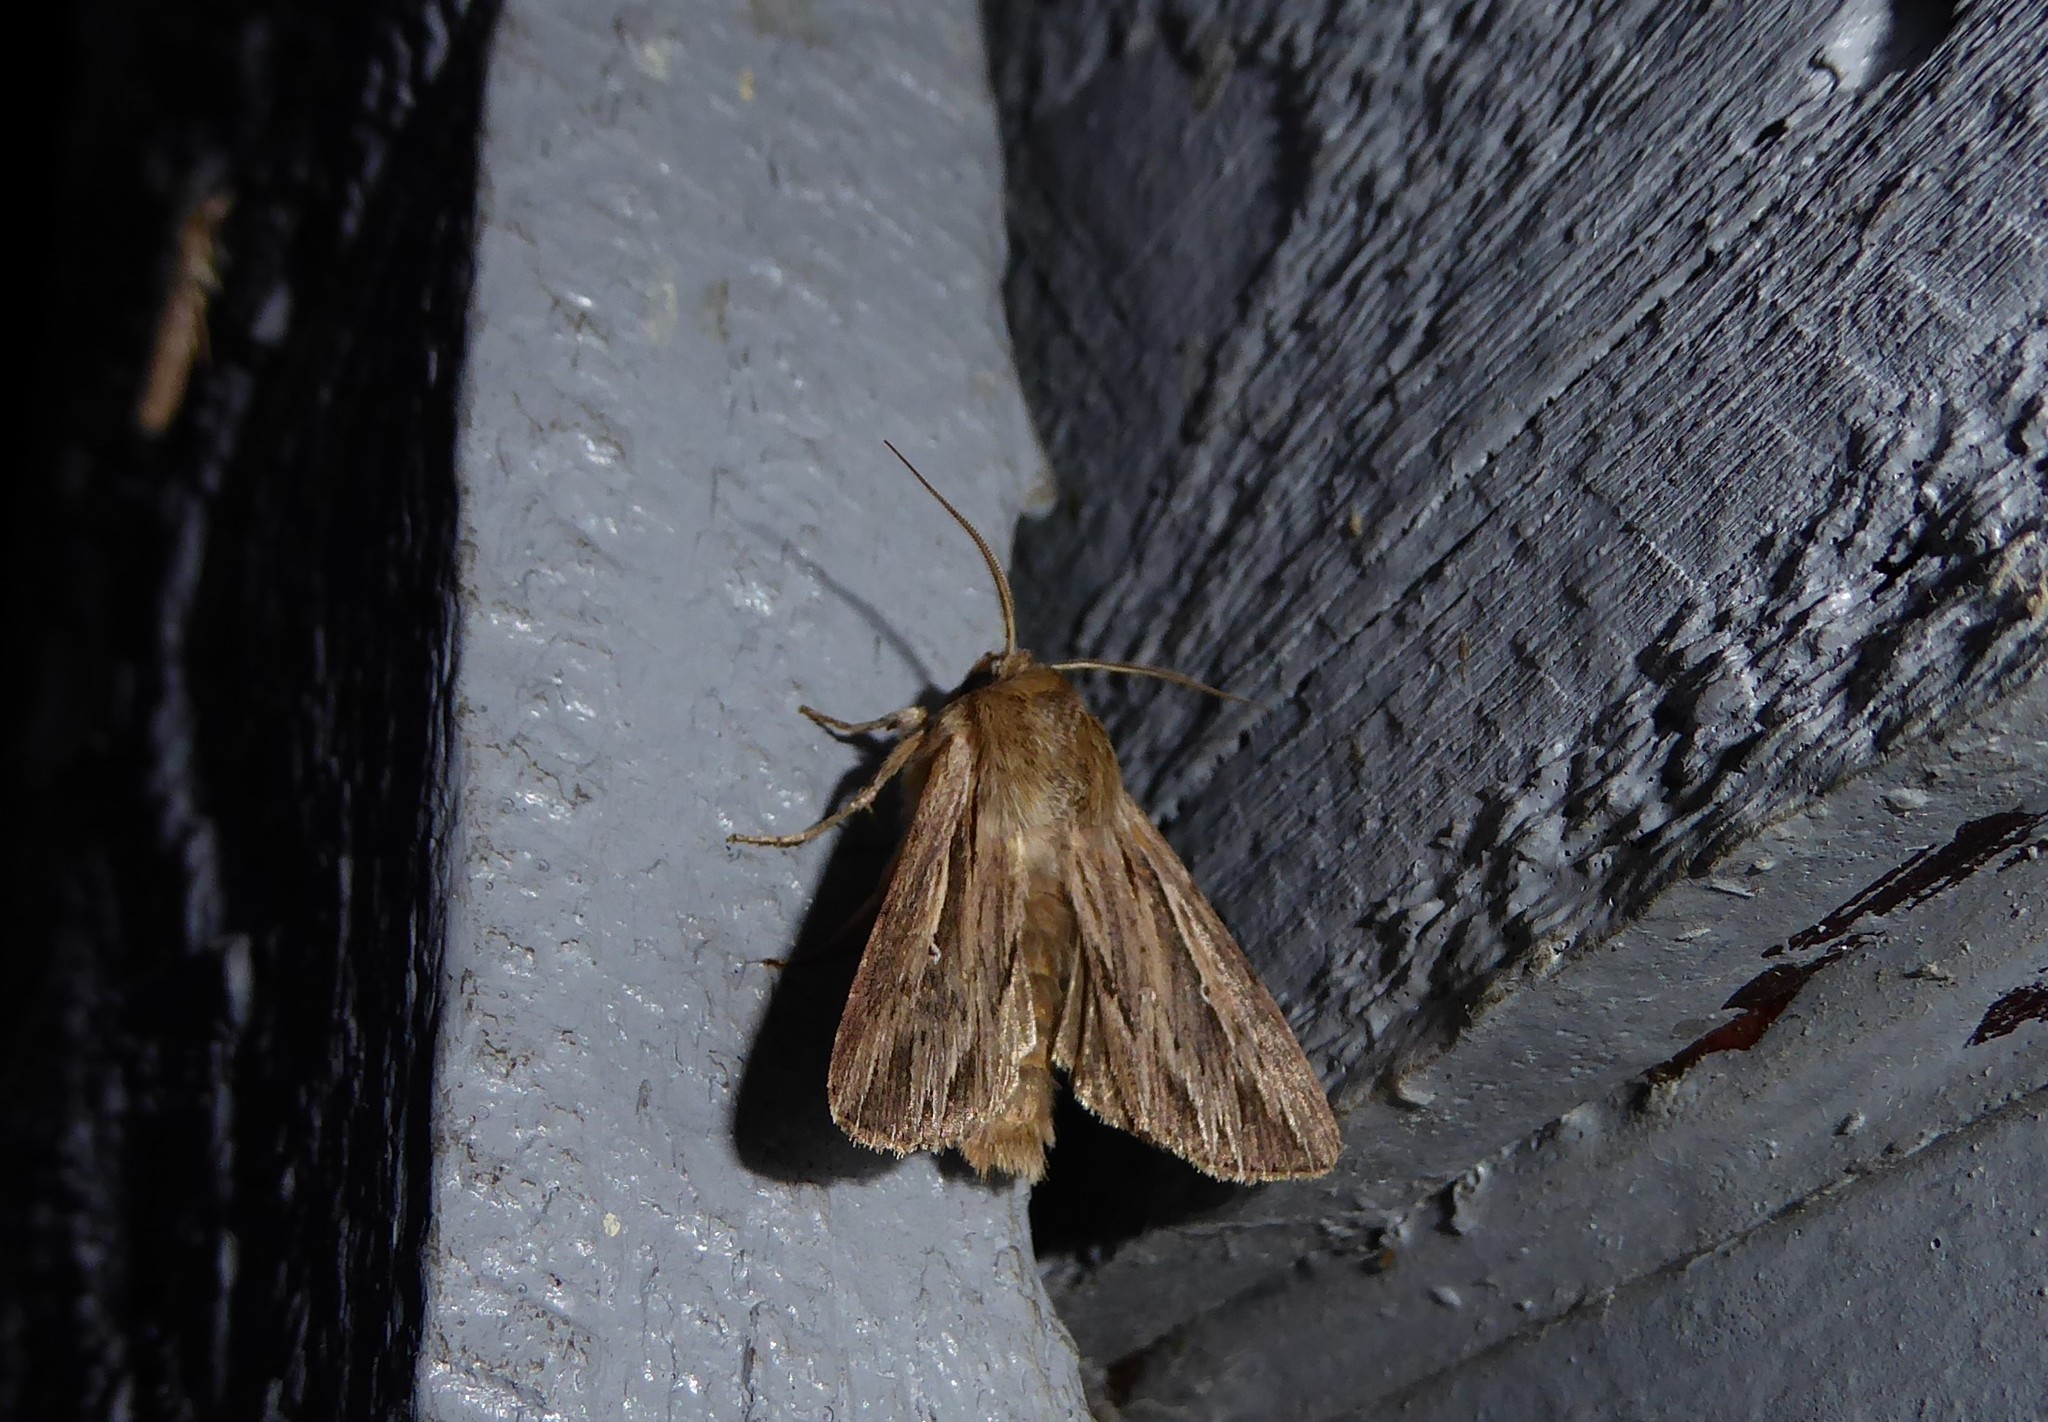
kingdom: Animalia
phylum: Arthropoda
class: Insecta
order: Lepidoptera
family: Noctuidae
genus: Persectania
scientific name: Persectania aversa
